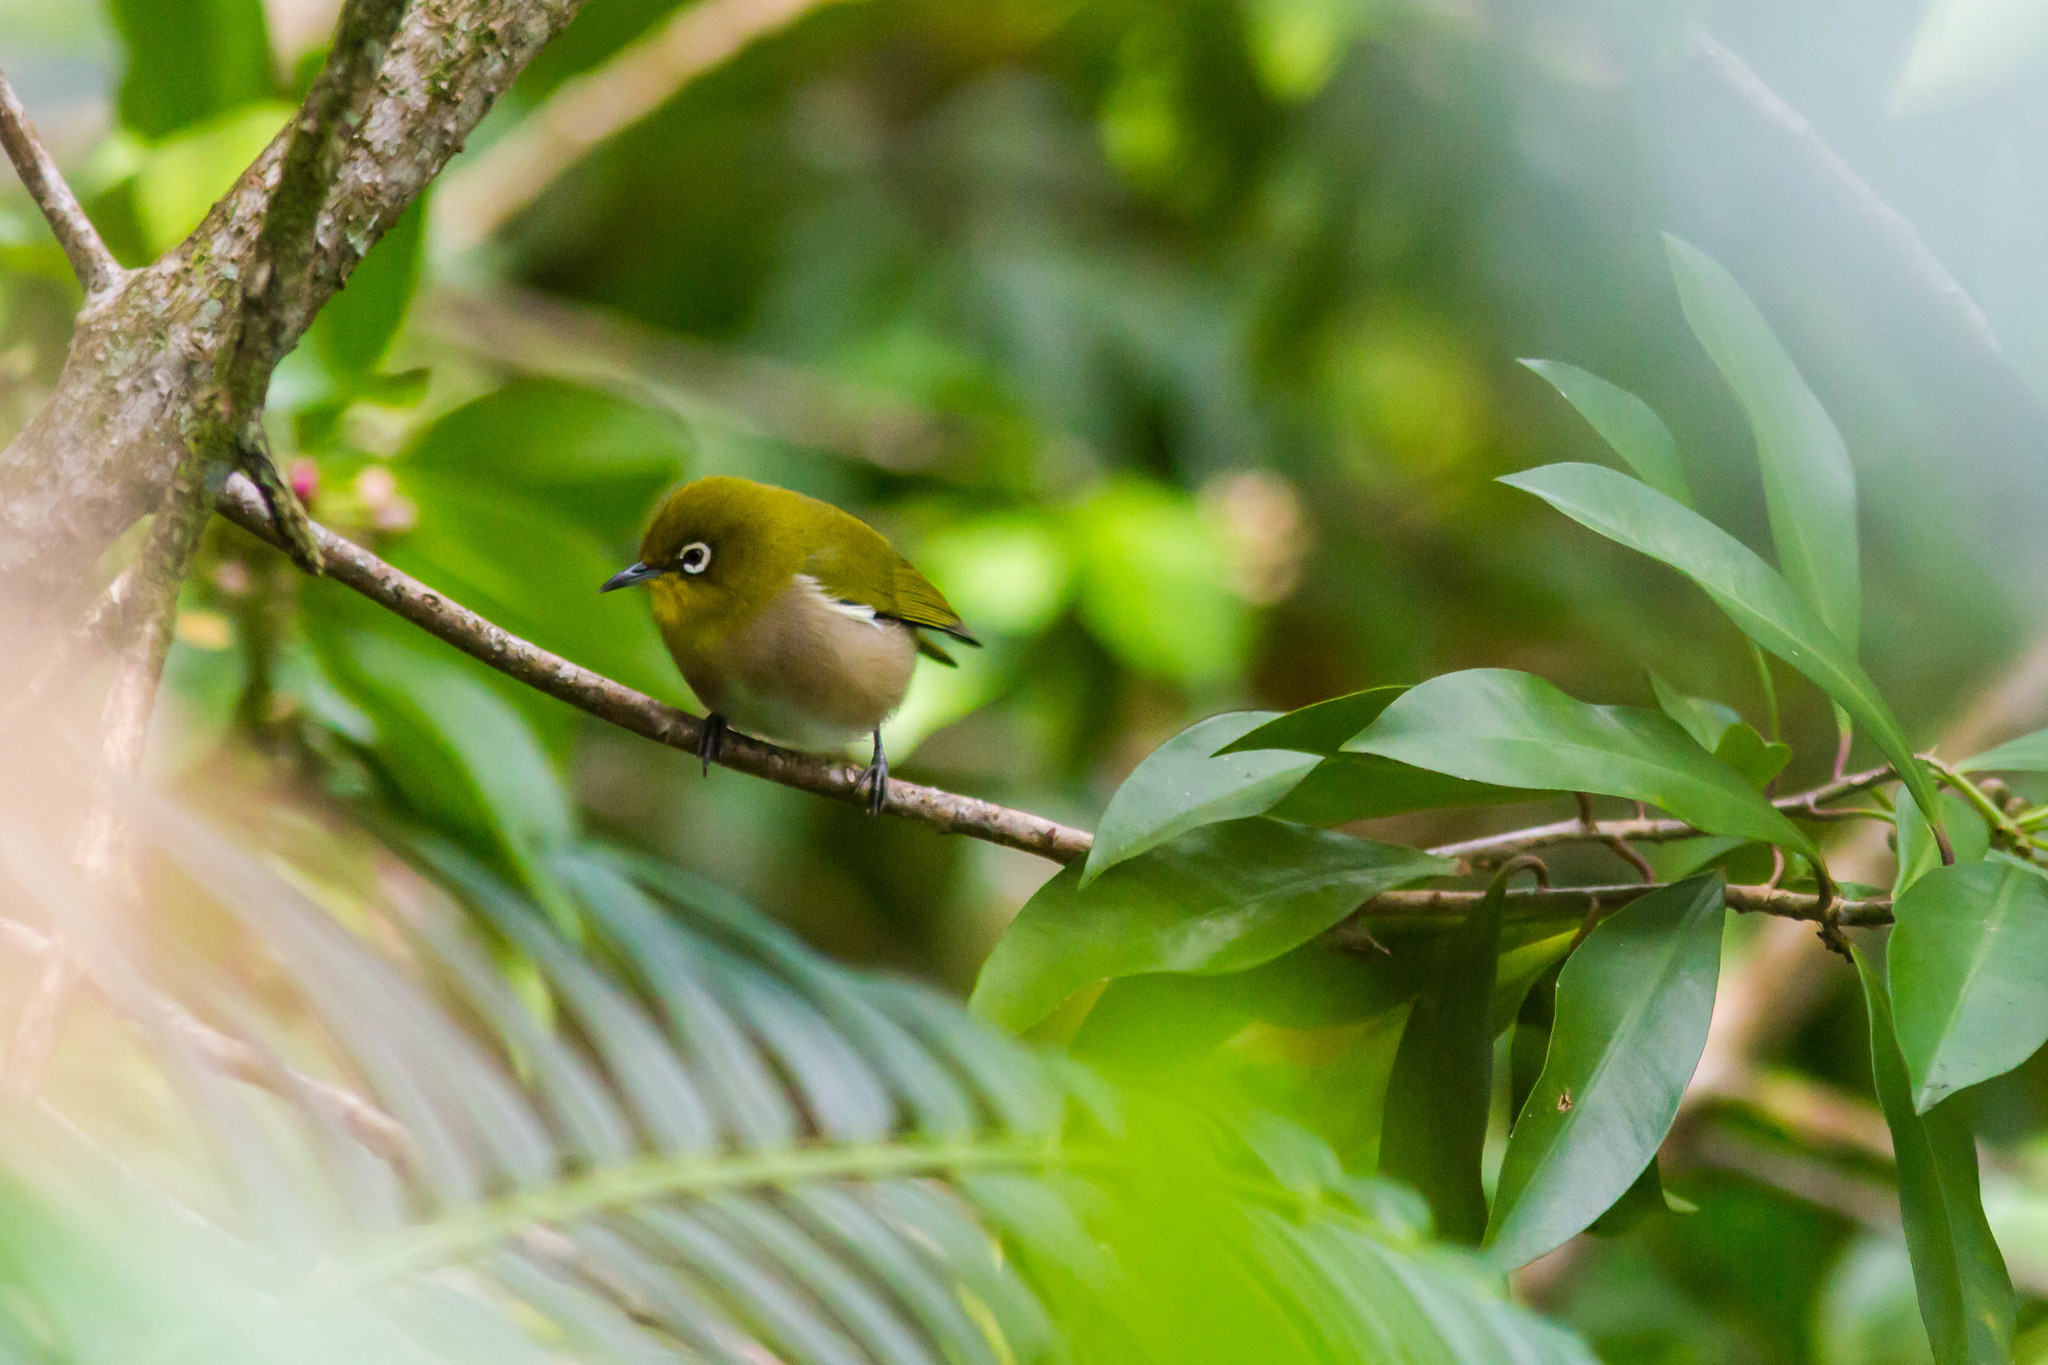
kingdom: Animalia
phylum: Chordata
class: Aves
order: Passeriformes
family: Zosteropidae
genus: Zosterops
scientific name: Zosterops japonicus
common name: Japanese white-eye
